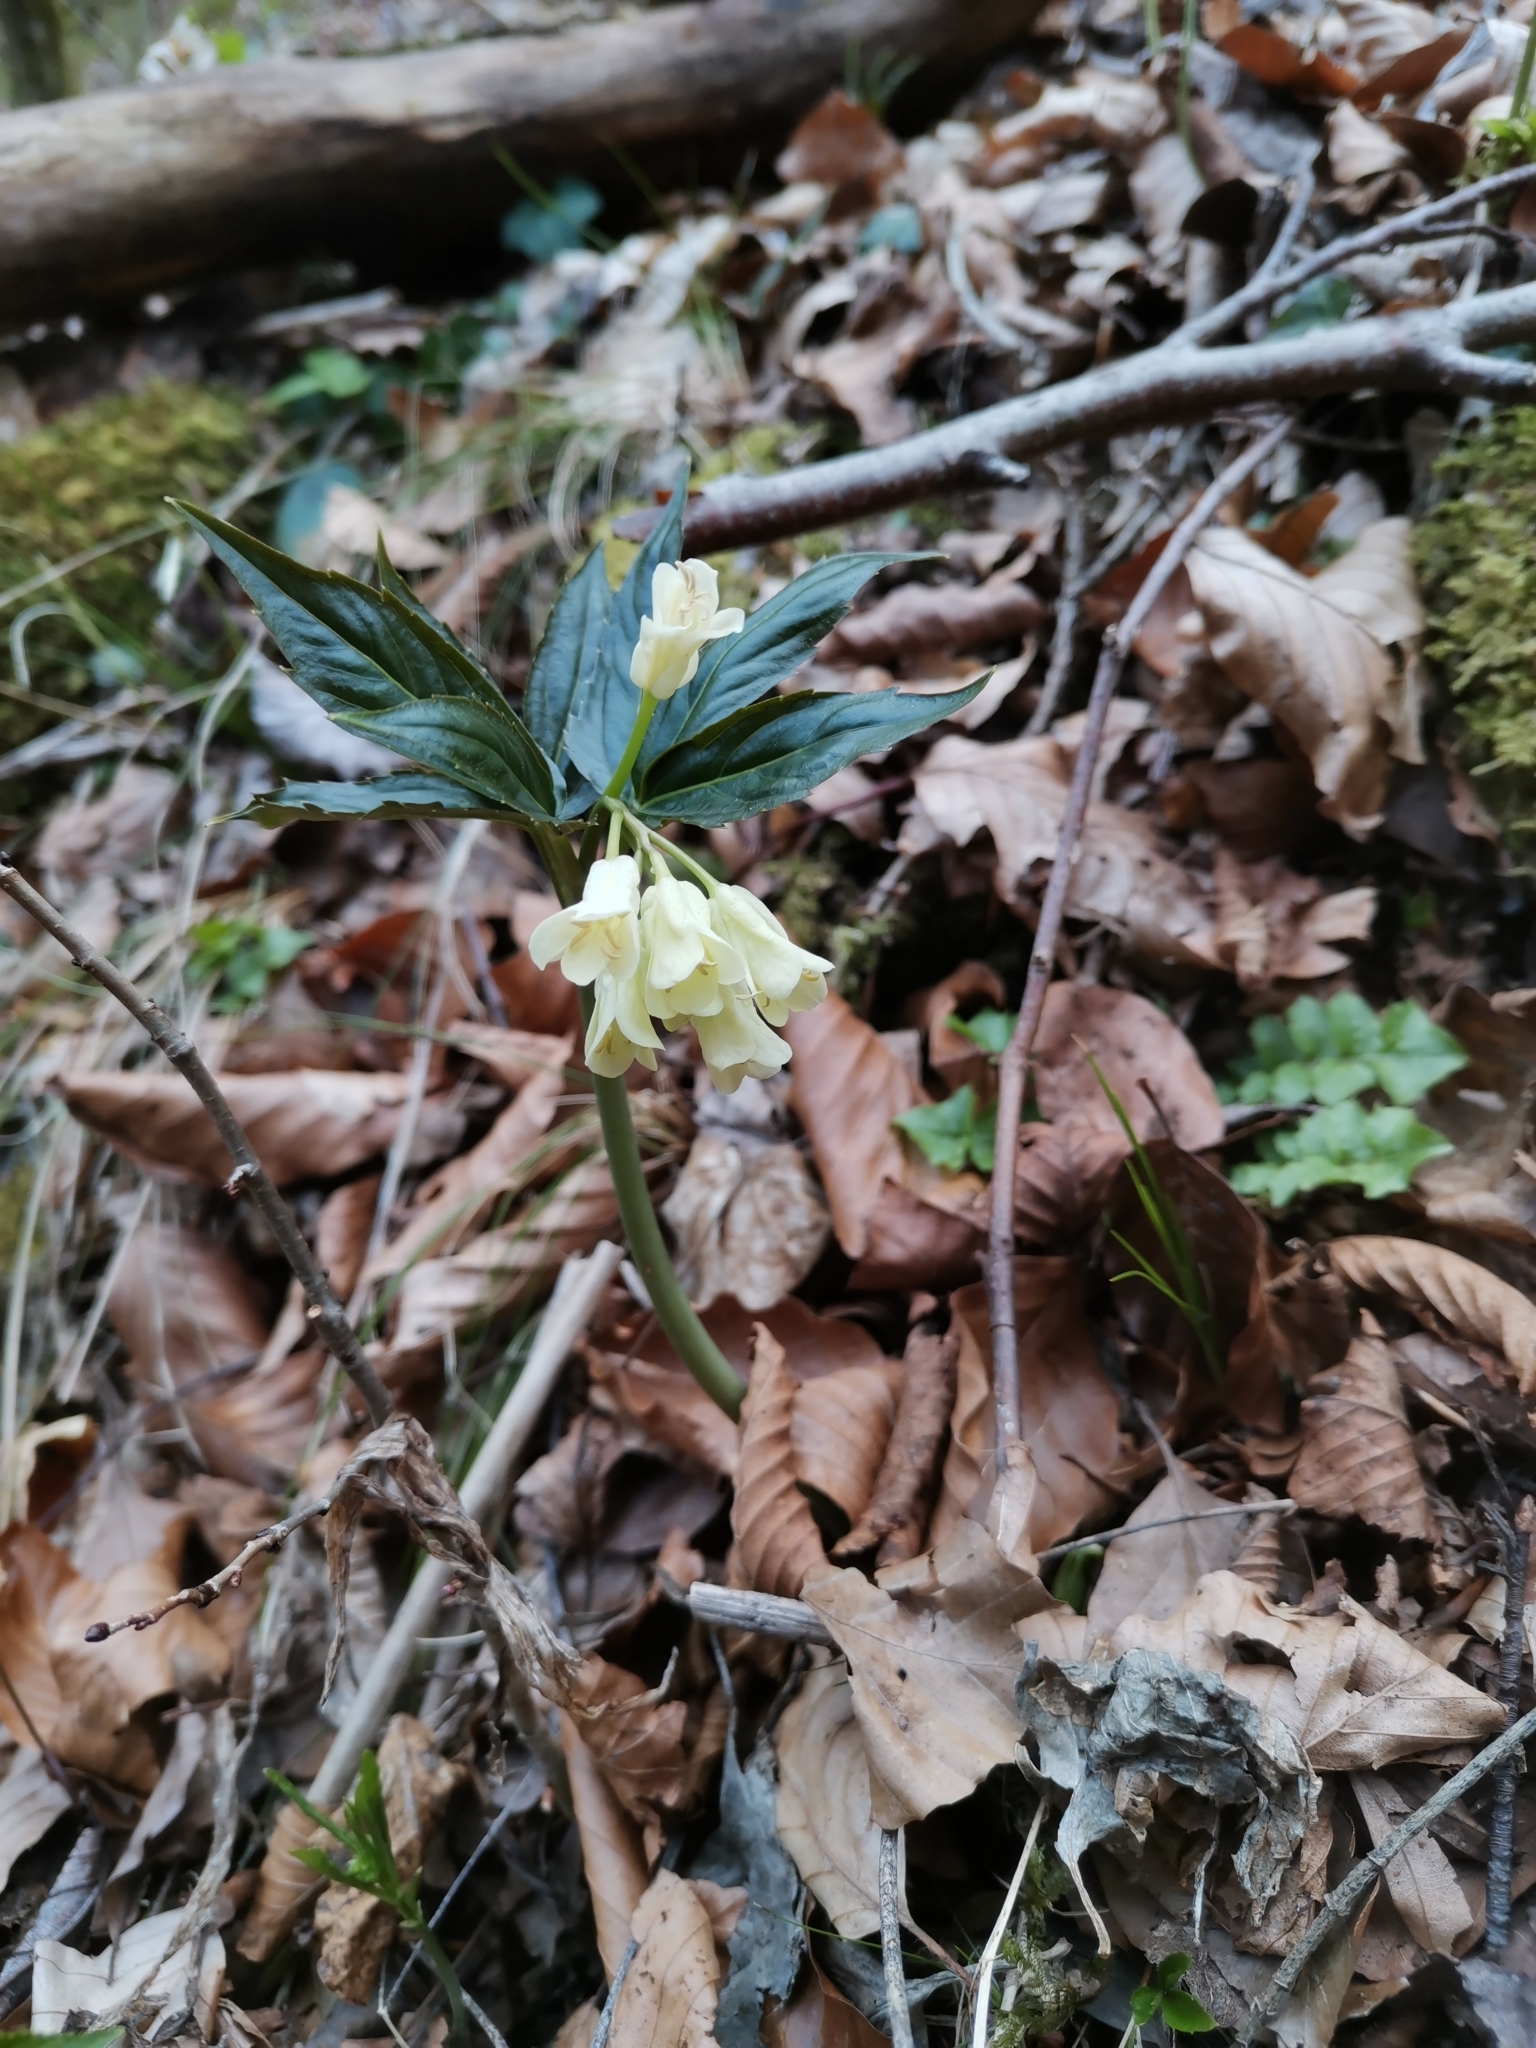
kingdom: Plantae
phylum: Tracheophyta
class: Magnoliopsida
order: Brassicales
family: Brassicaceae
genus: Cardamine
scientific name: Cardamine enneaphyllos
